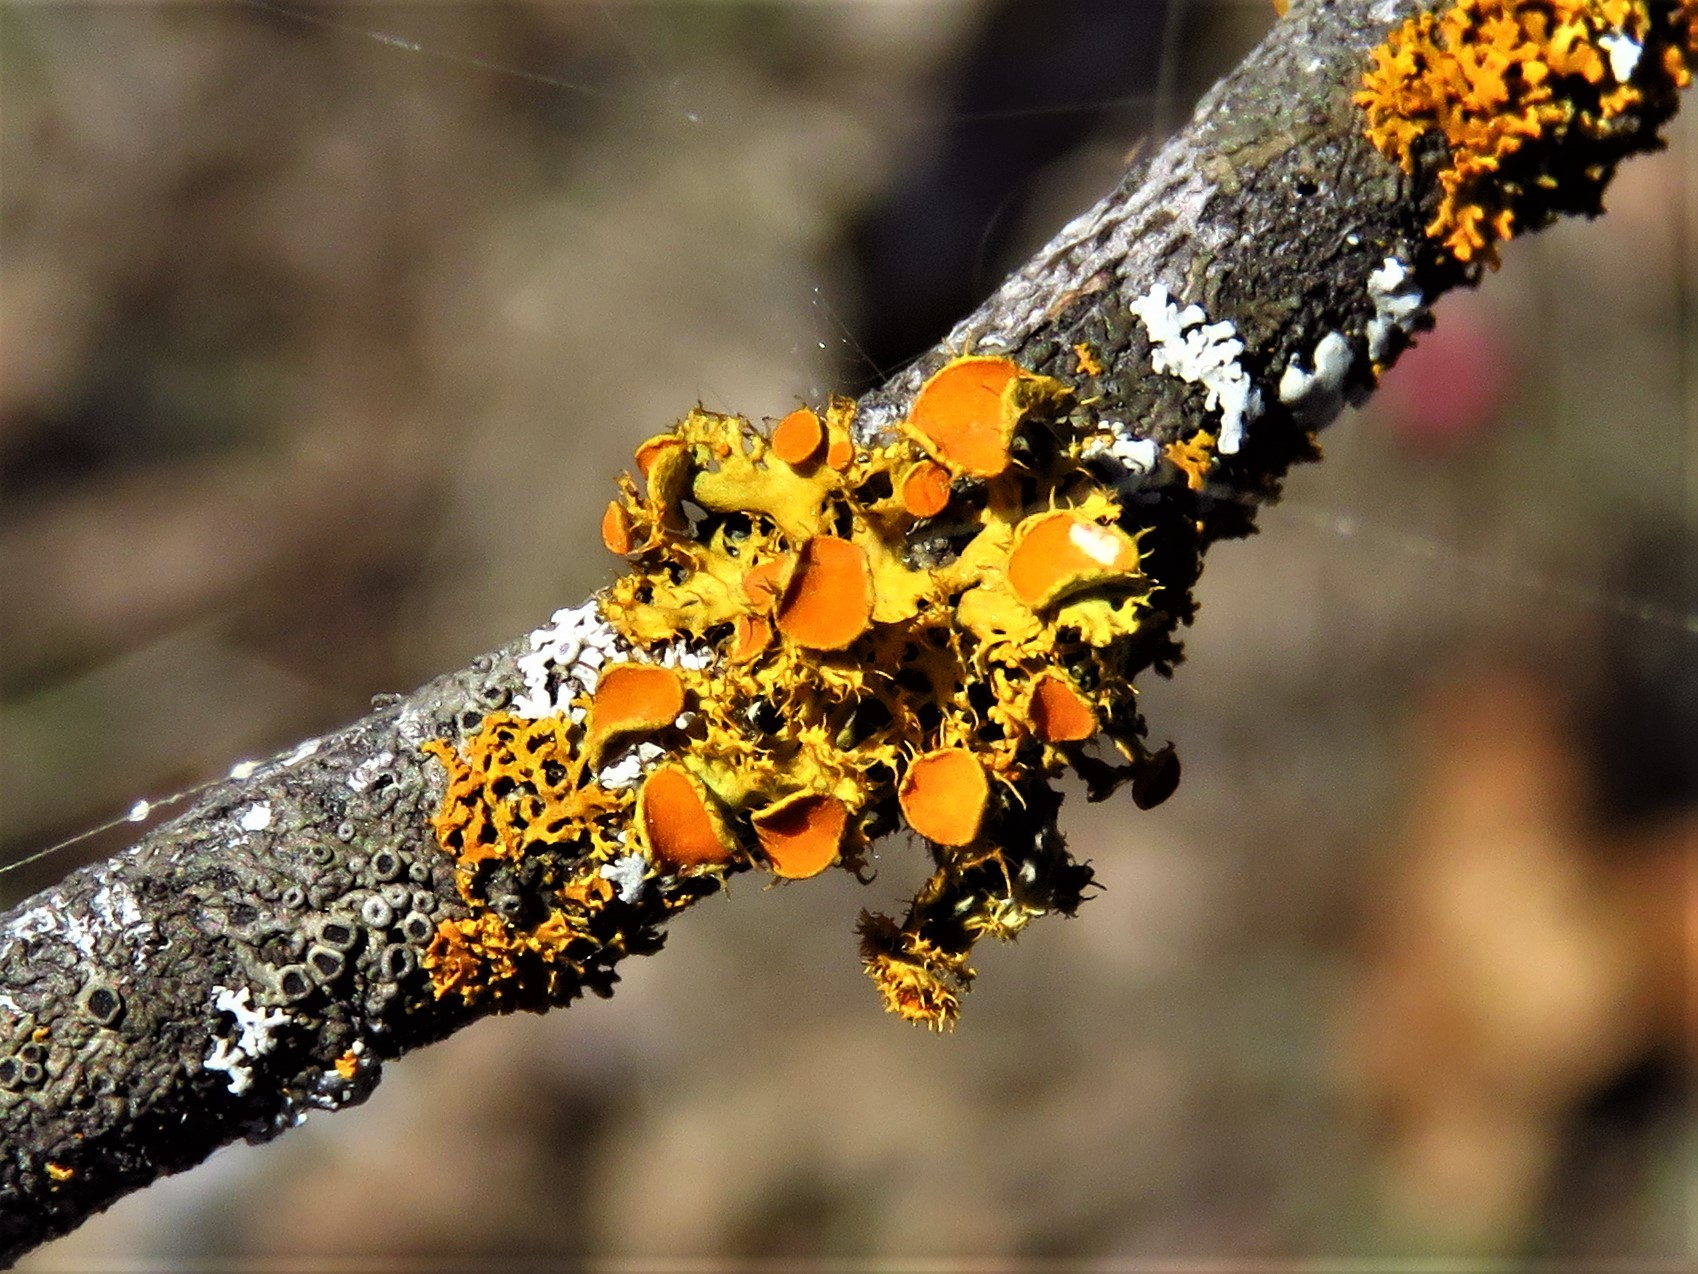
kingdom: Fungi
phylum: Ascomycota
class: Lecanoromycetes
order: Teloschistales
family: Teloschistaceae
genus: Niorma
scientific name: Niorma chrysophthalma
